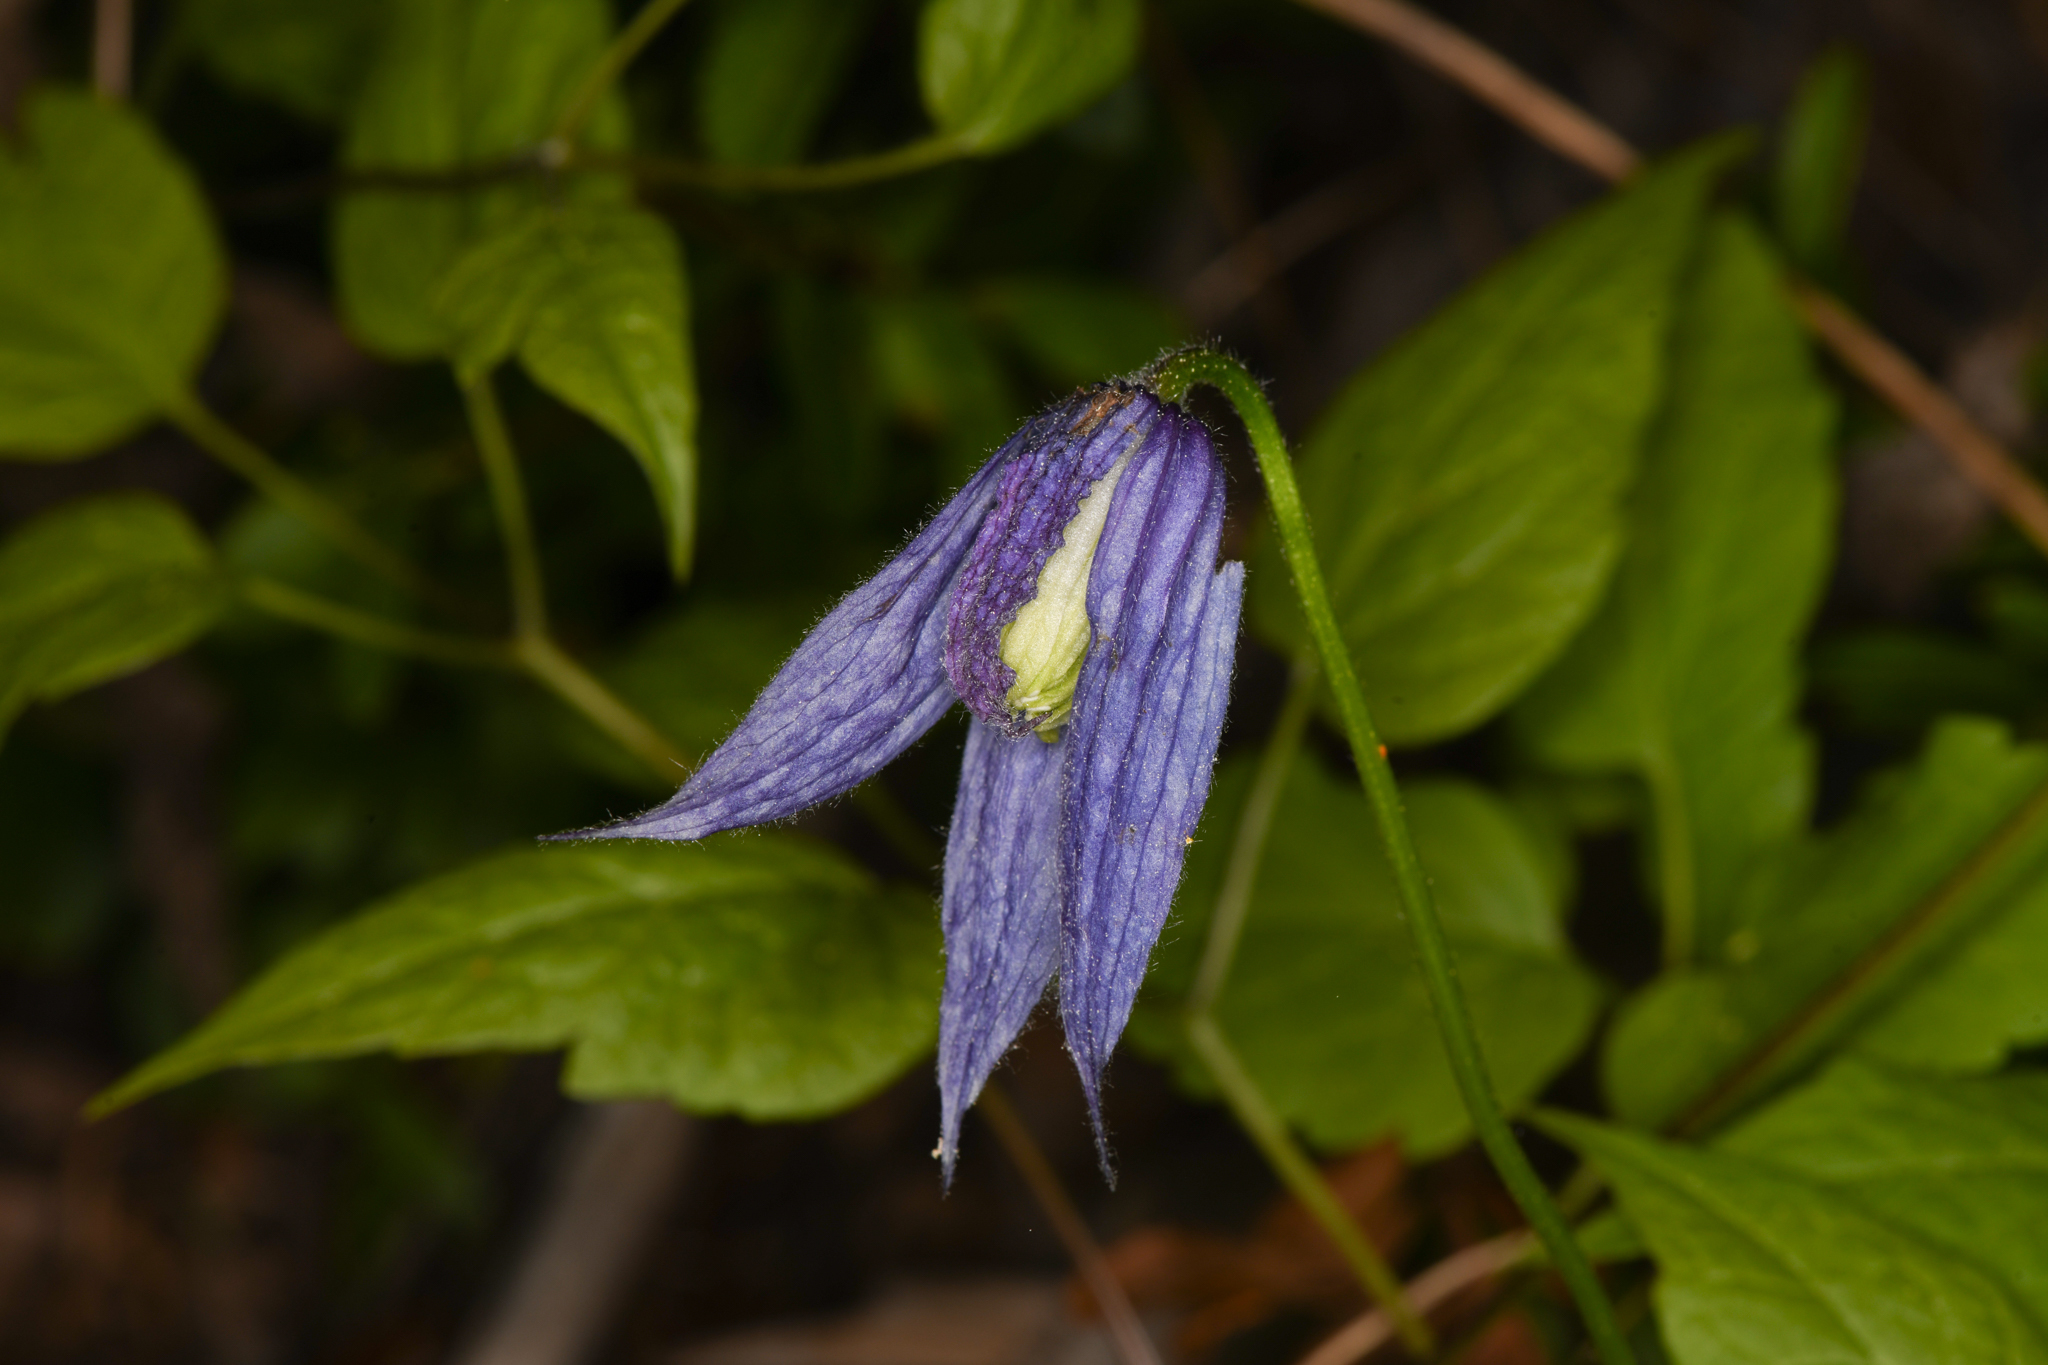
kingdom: Plantae
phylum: Tracheophyta
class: Magnoliopsida
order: Ranunculales
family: Ranunculaceae
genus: Clematis
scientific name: Clematis occidentalis
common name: Purple clematis
